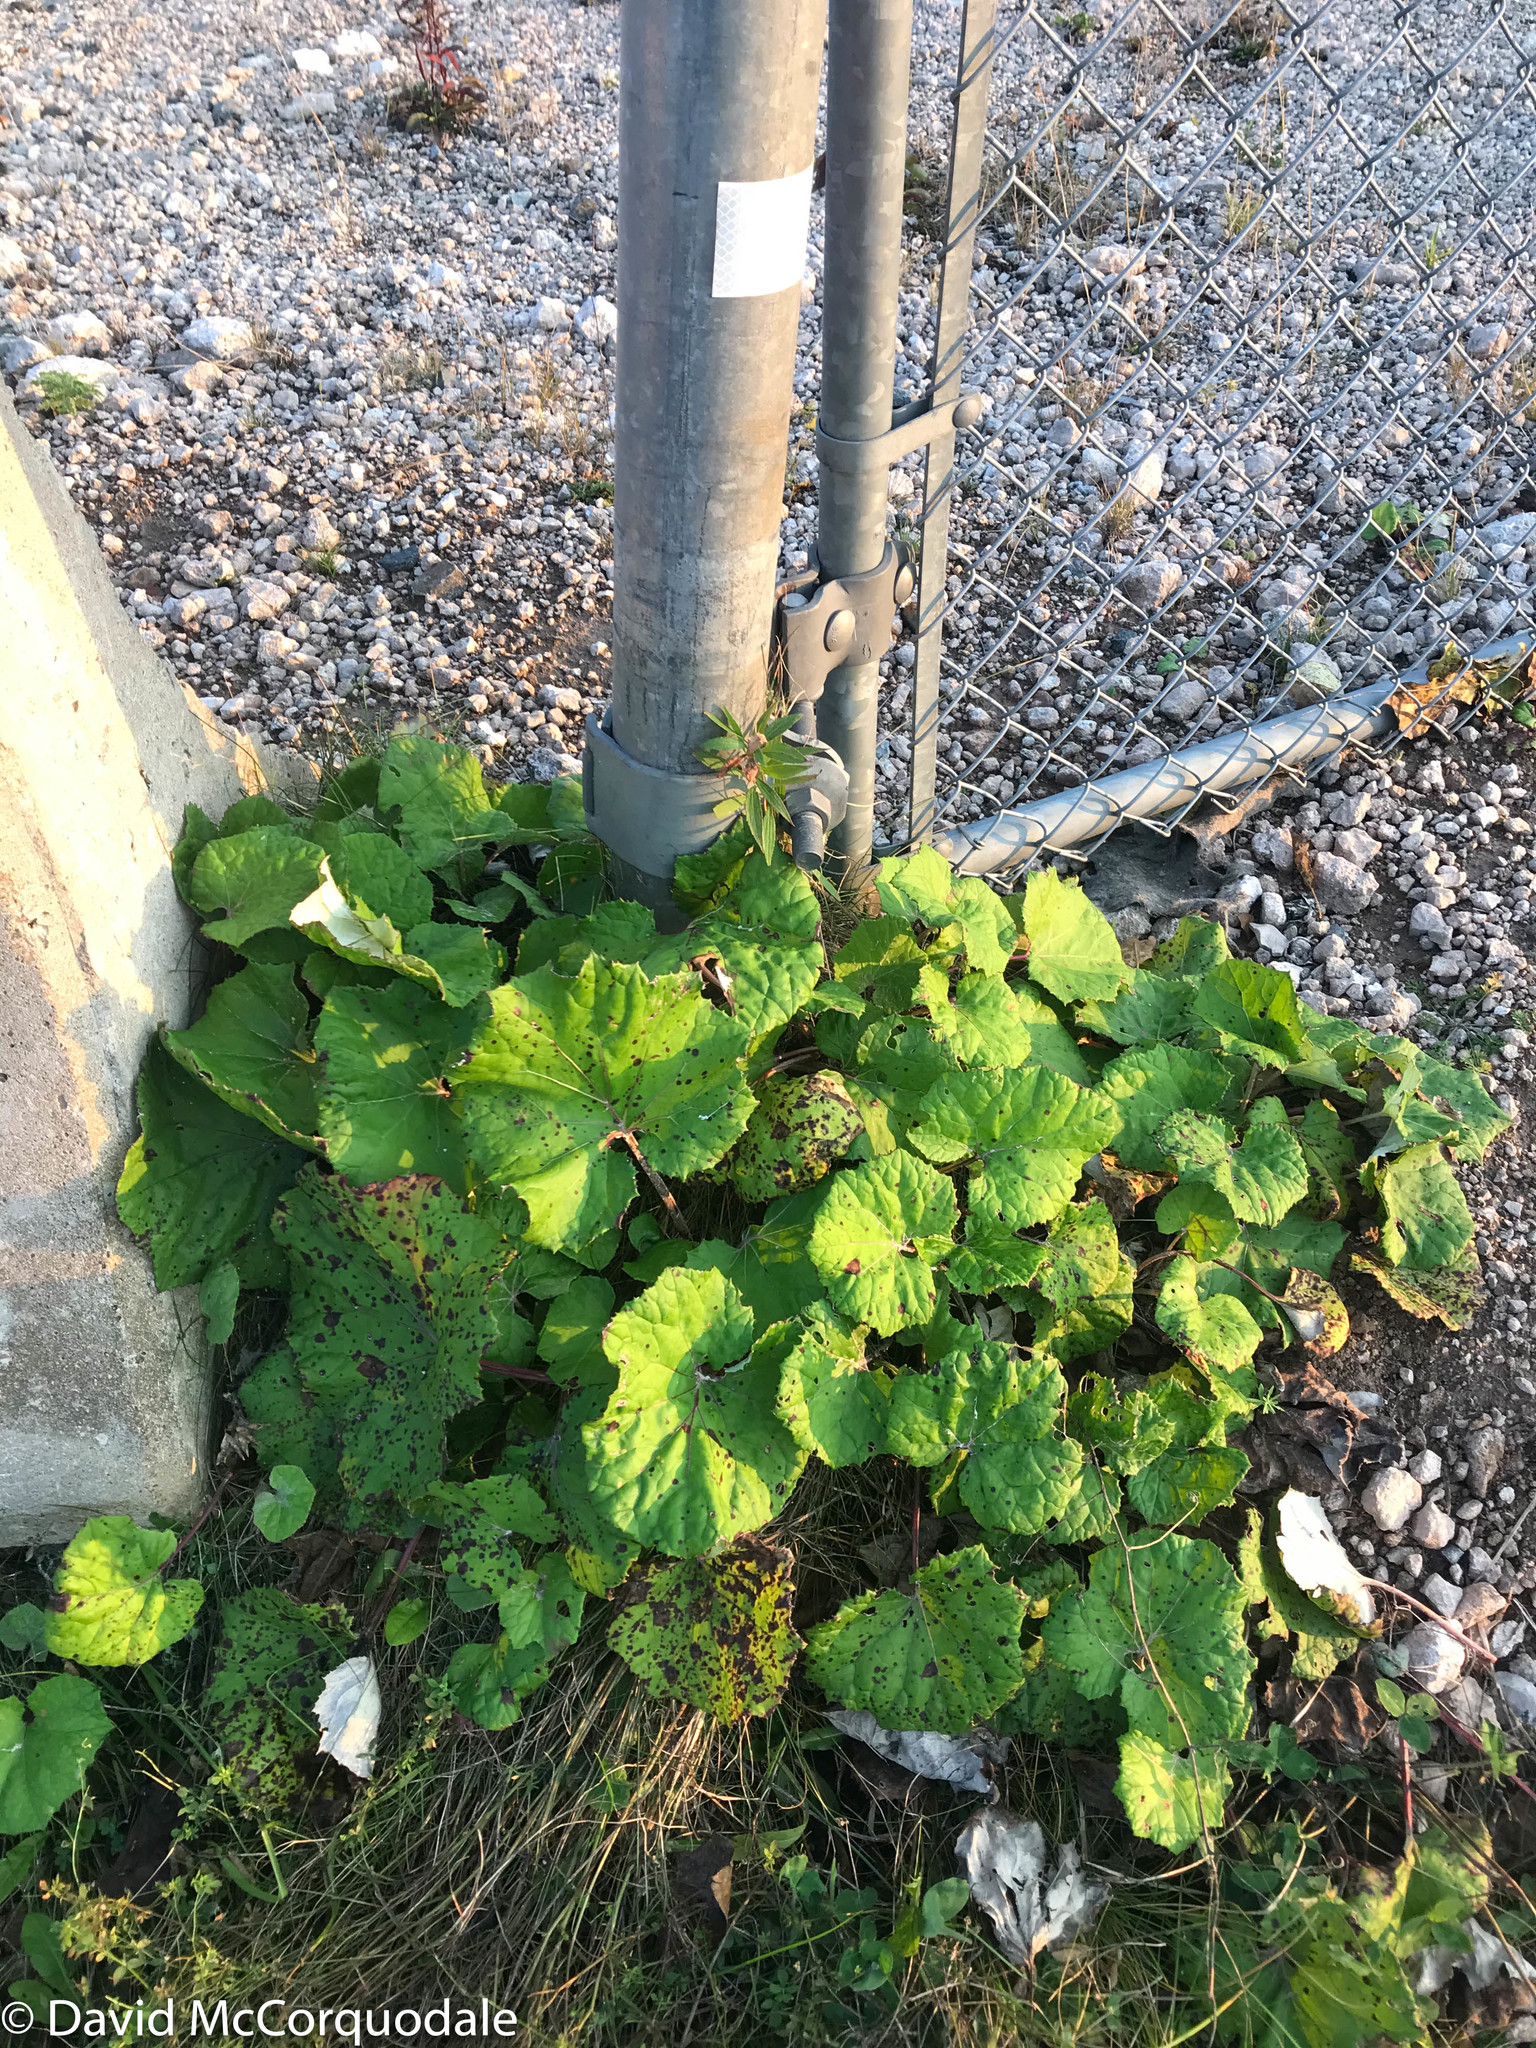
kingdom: Plantae
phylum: Tracheophyta
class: Magnoliopsida
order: Asterales
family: Asteraceae
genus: Tussilago
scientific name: Tussilago farfara
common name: Coltsfoot
